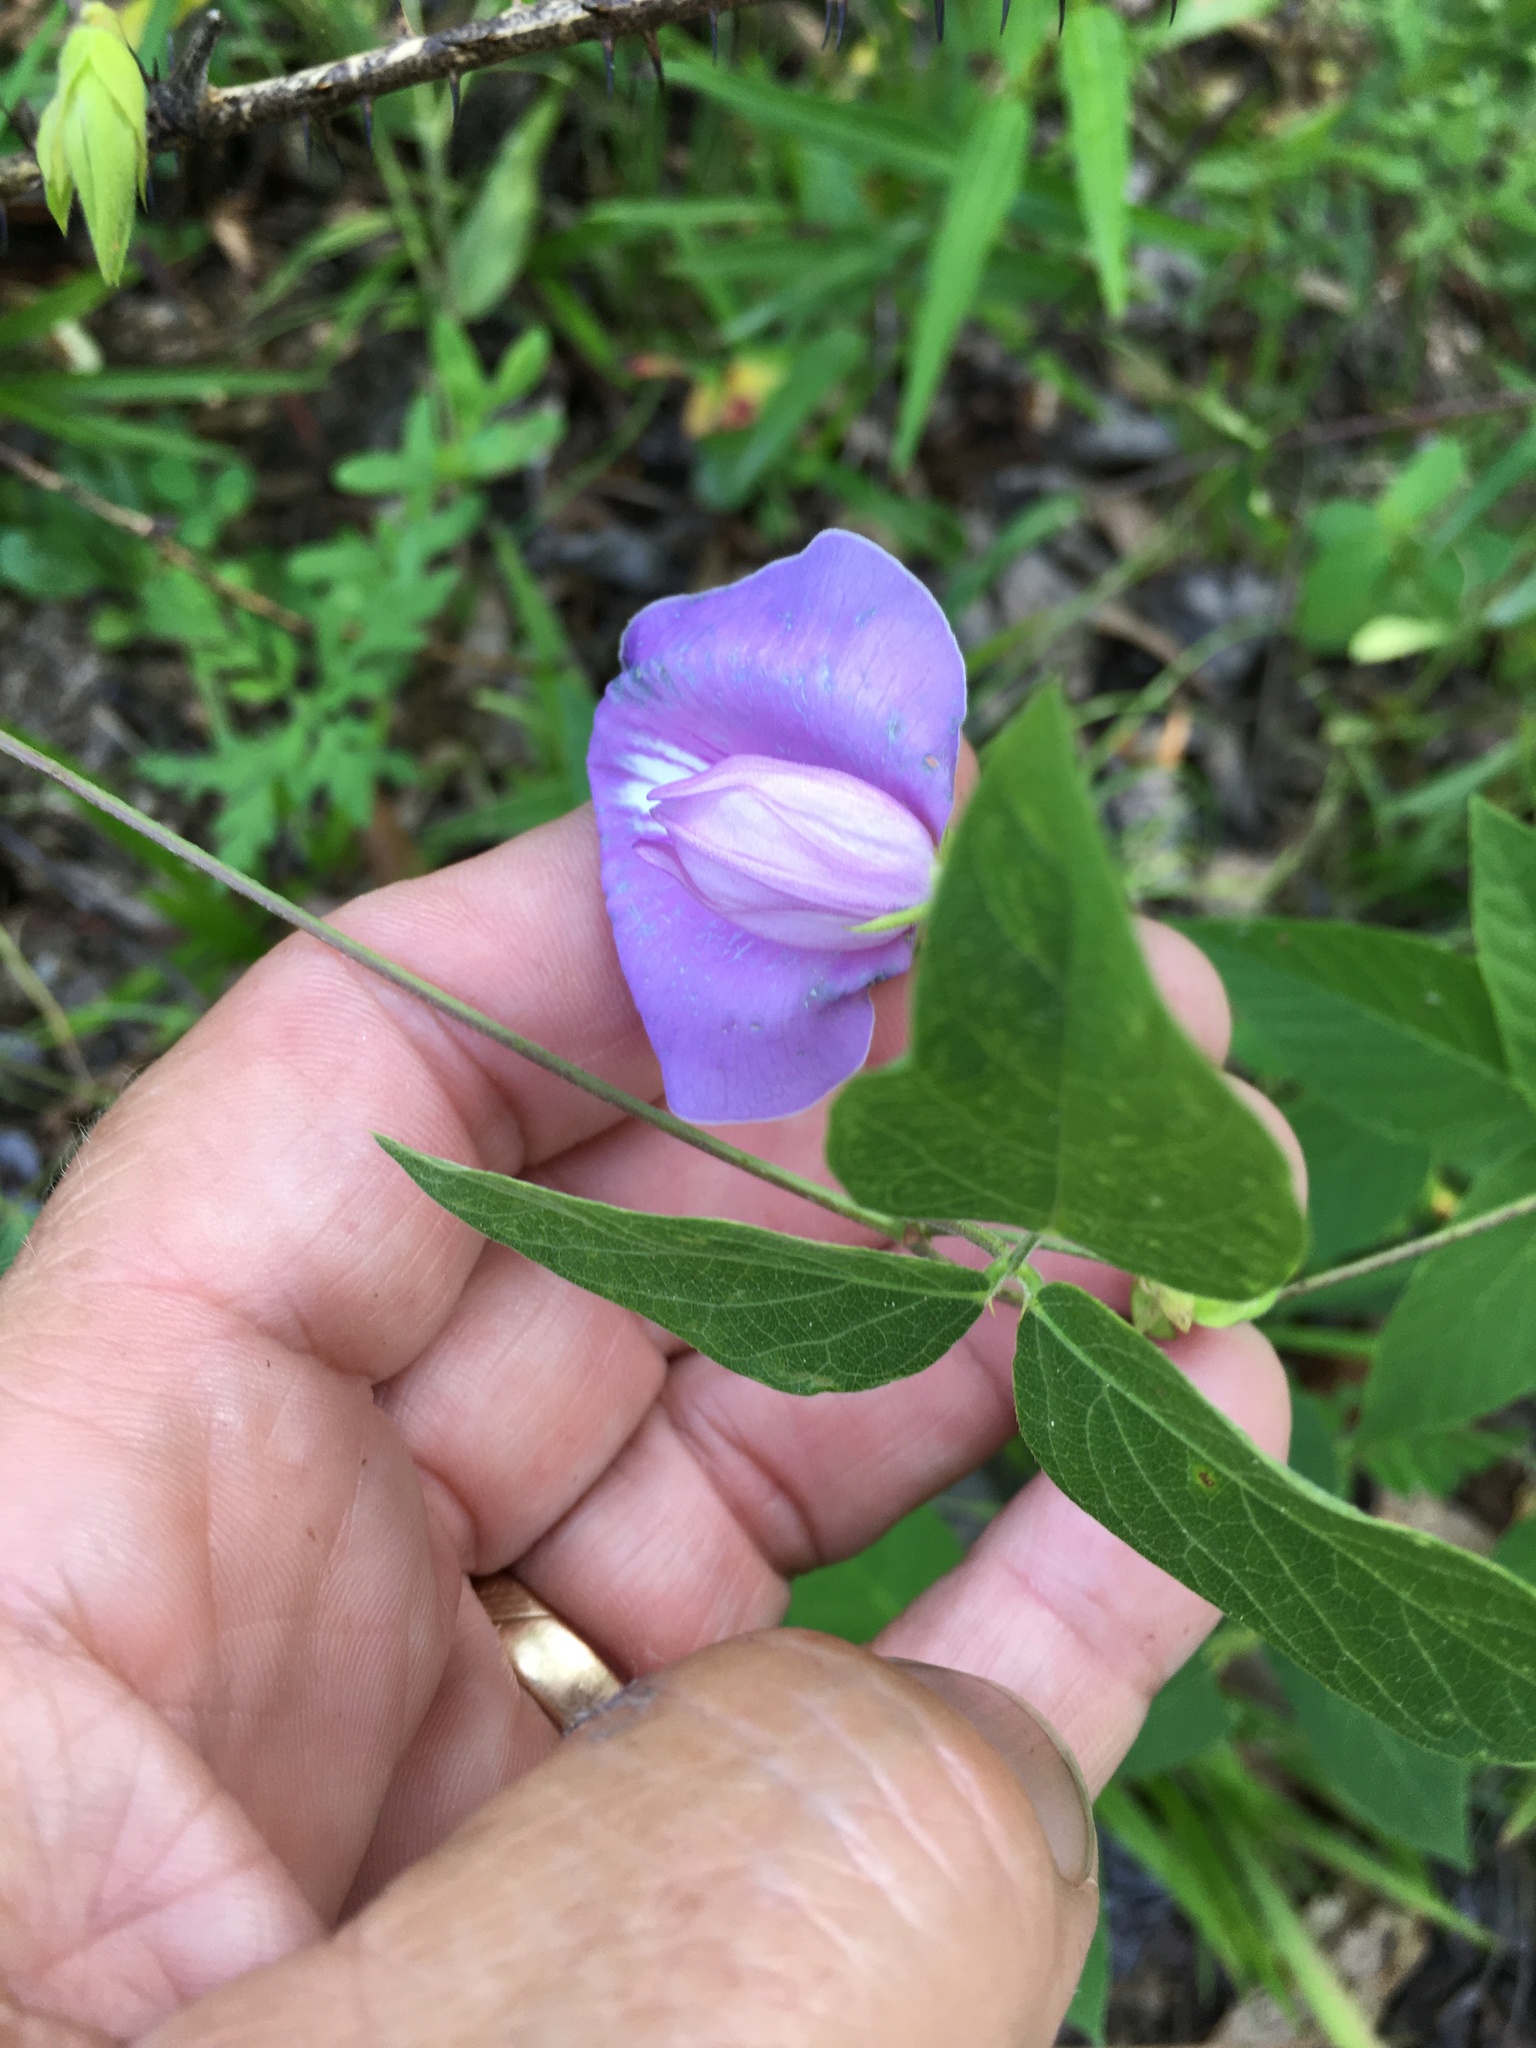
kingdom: Plantae
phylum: Tracheophyta
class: Magnoliopsida
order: Fabales
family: Fabaceae
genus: Centrosema
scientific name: Centrosema virginianum
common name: Butterfly-pea
